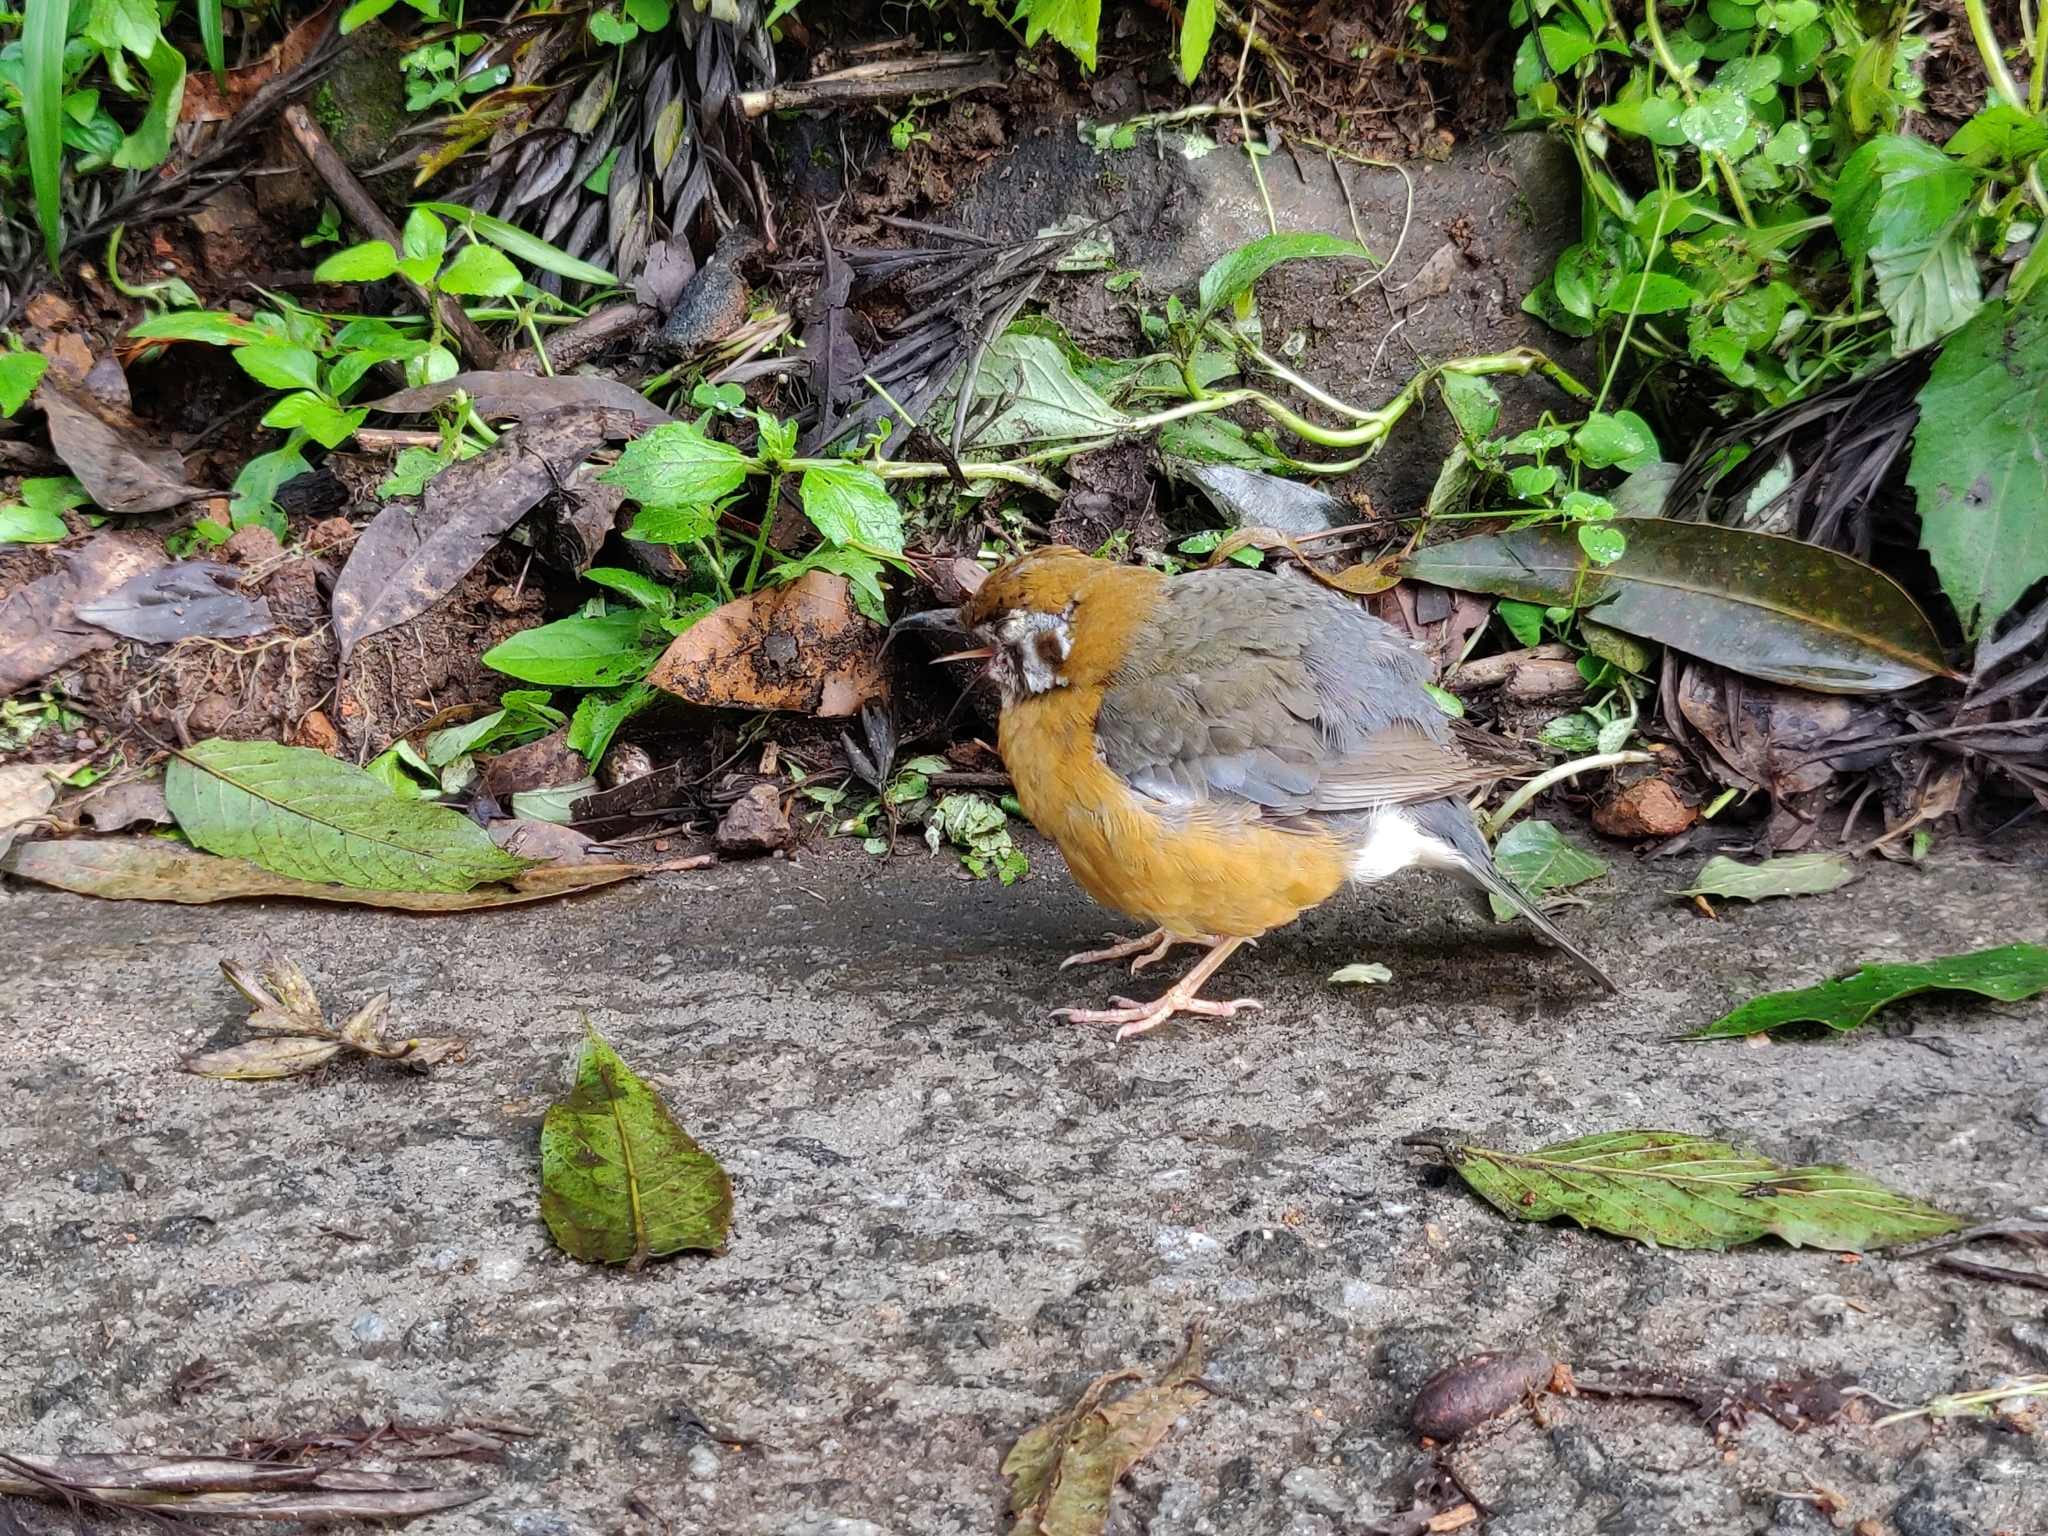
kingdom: Animalia
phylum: Chordata
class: Aves
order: Passeriformes
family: Turdidae
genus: Geokichla
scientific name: Geokichla citrina
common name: Orange-headed thrush
